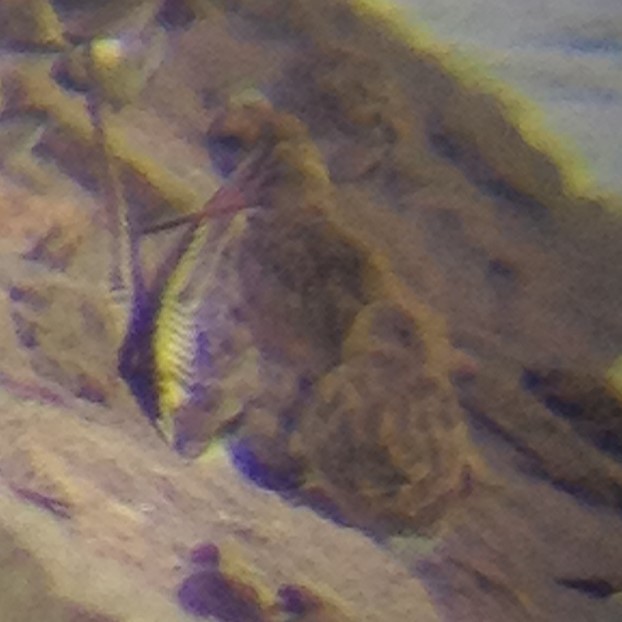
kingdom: Animalia
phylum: Chordata
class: Aves
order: Charadriiformes
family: Scolopacidae
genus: Limosa
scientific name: Limosa fedoa
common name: Marbled godwit
